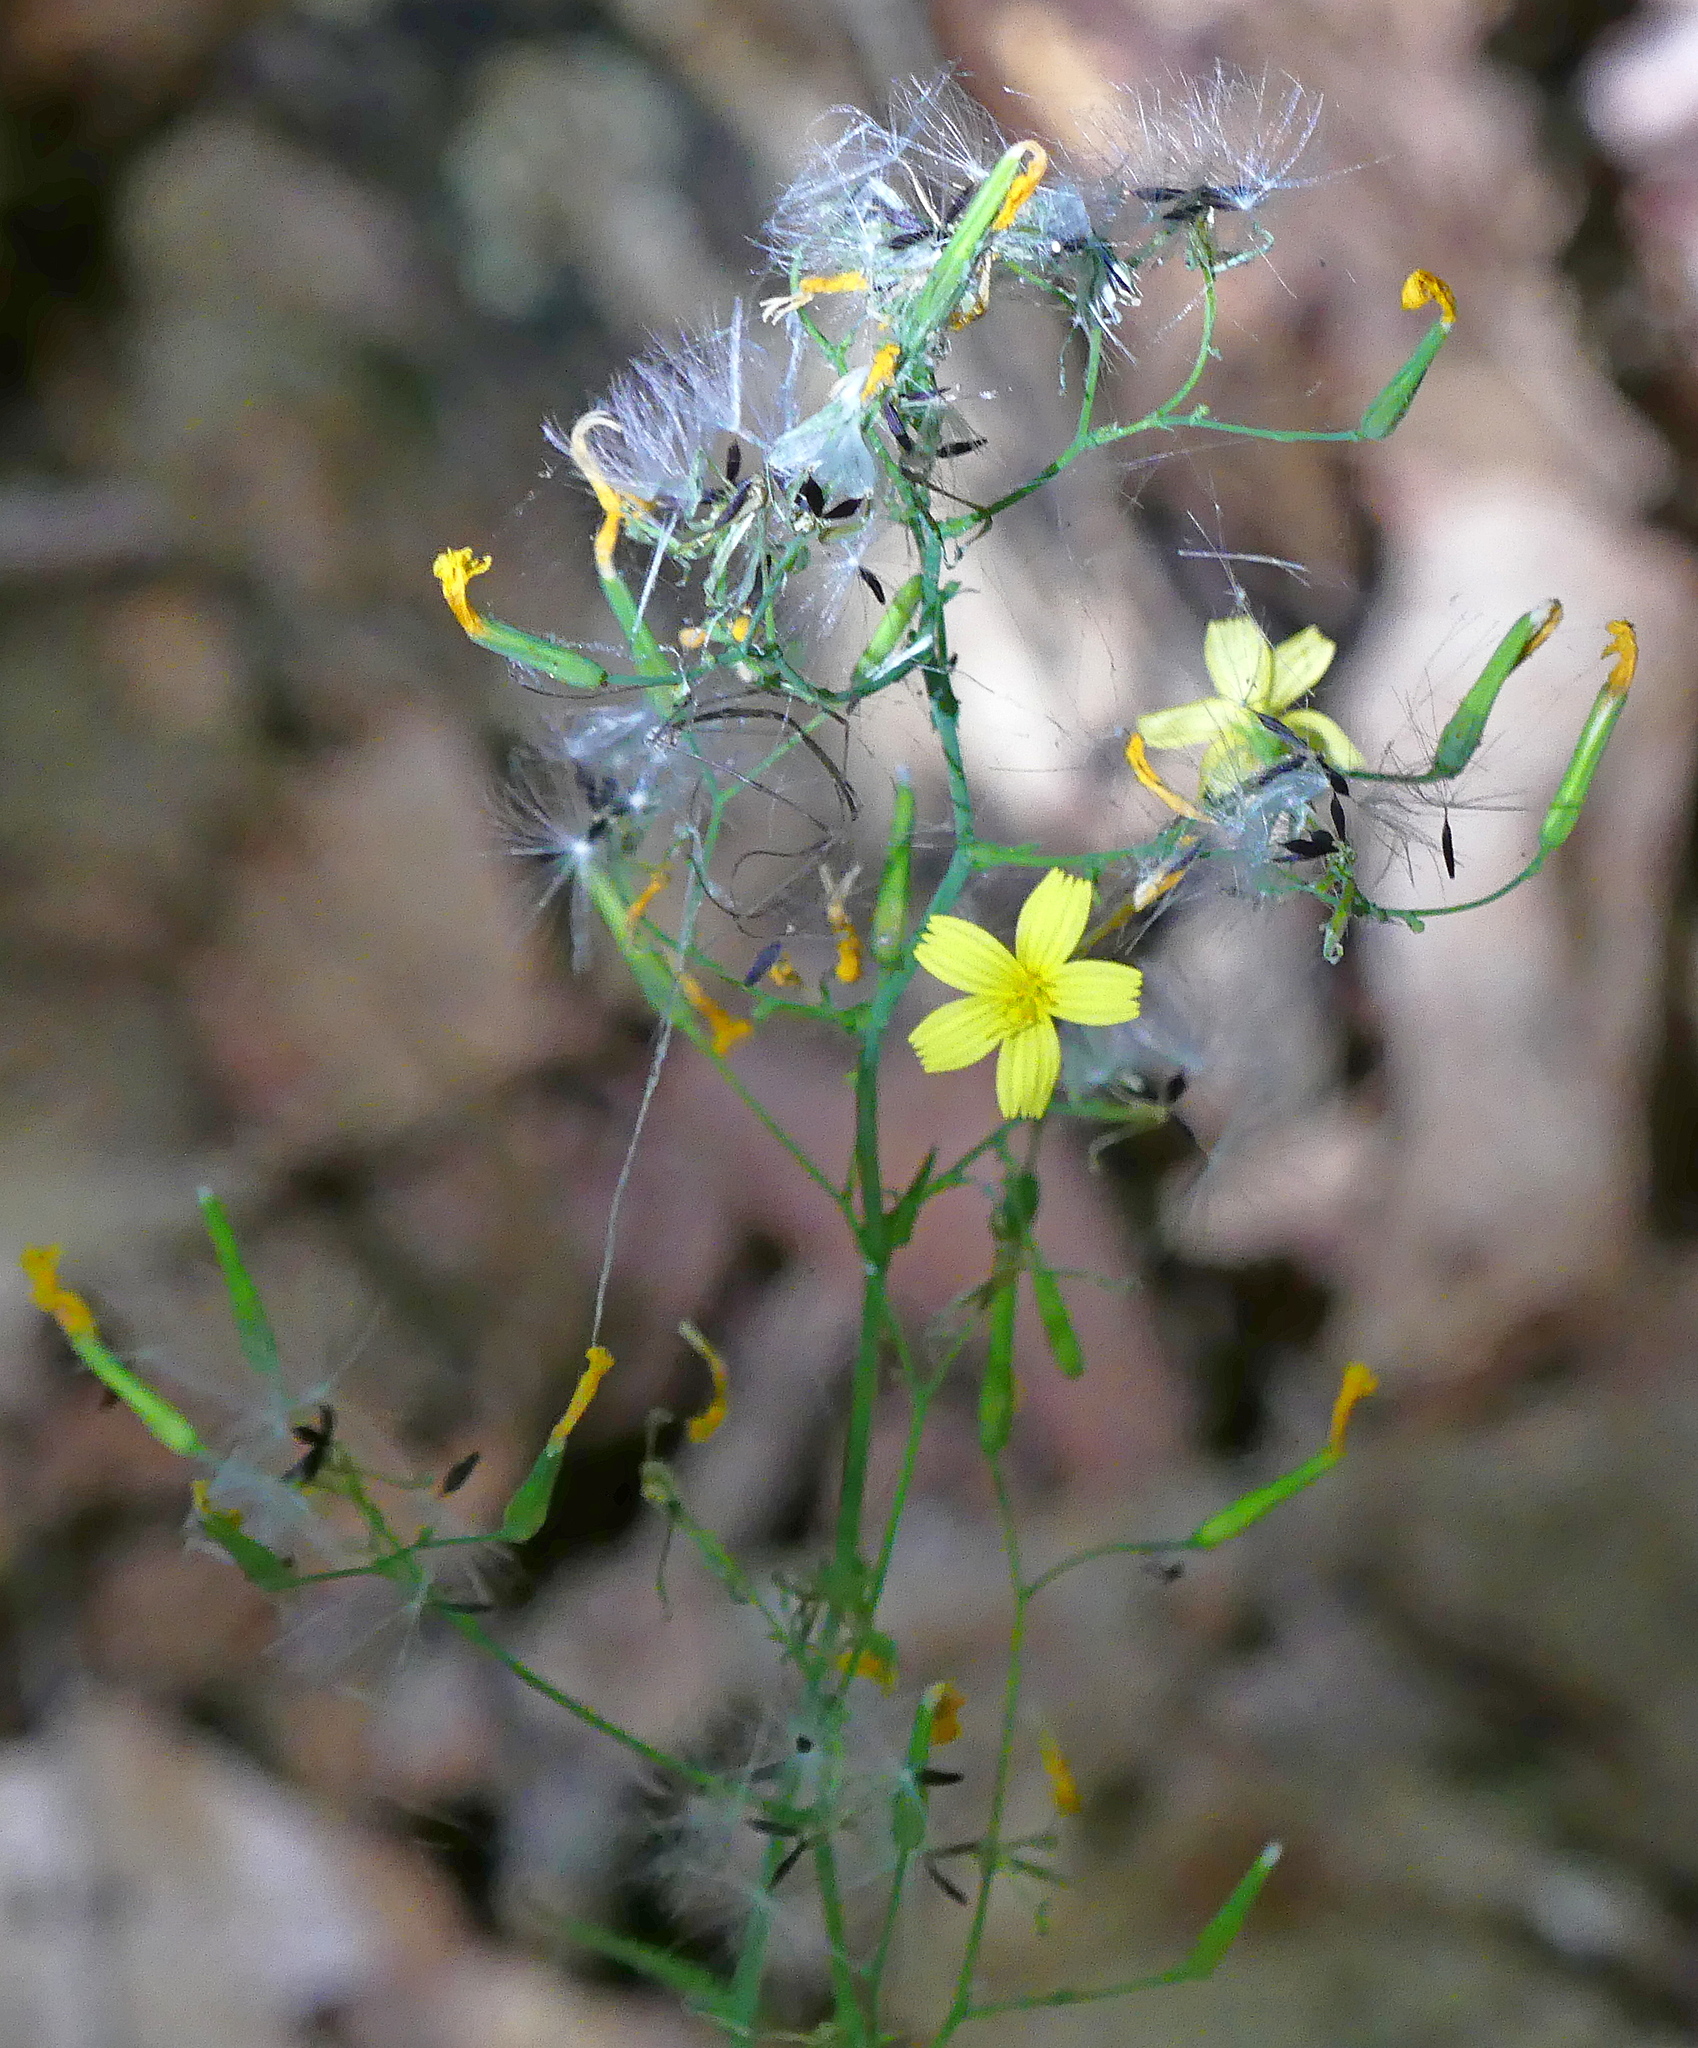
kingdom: Plantae
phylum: Tracheophyta
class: Magnoliopsida
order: Asterales
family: Asteraceae
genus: Mycelis
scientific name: Mycelis muralis
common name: Wall lettuce
